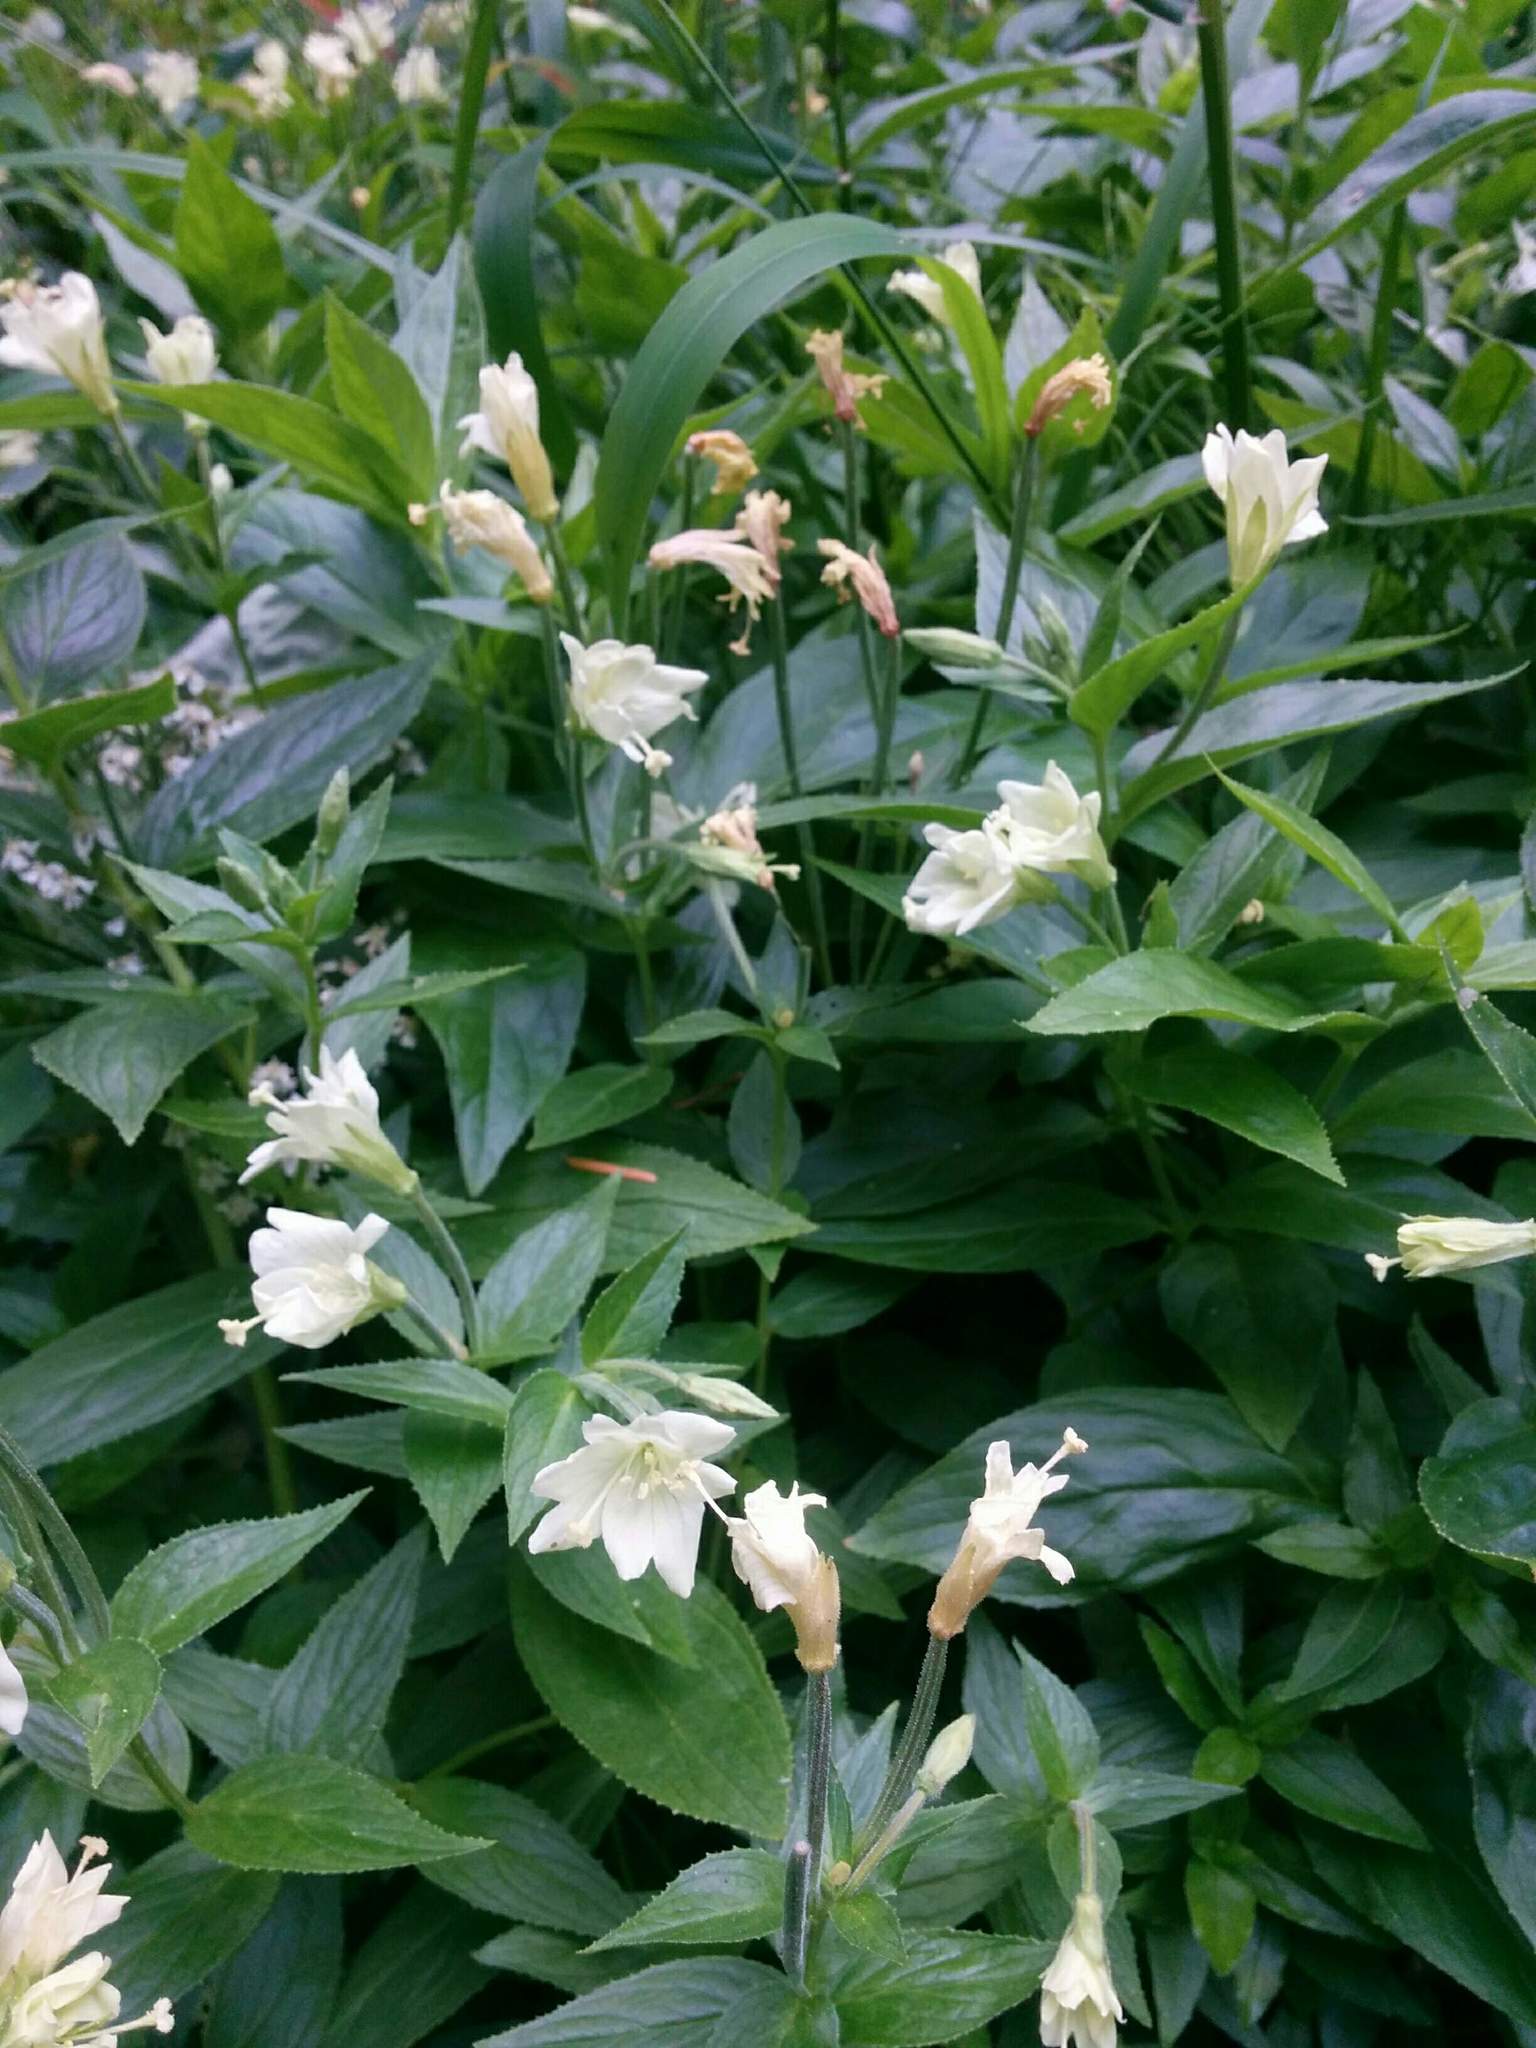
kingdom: Plantae
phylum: Tracheophyta
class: Magnoliopsida
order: Myrtales
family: Onagraceae
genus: Epilobium
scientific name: Epilobium luteum
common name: Yellow willowherb
